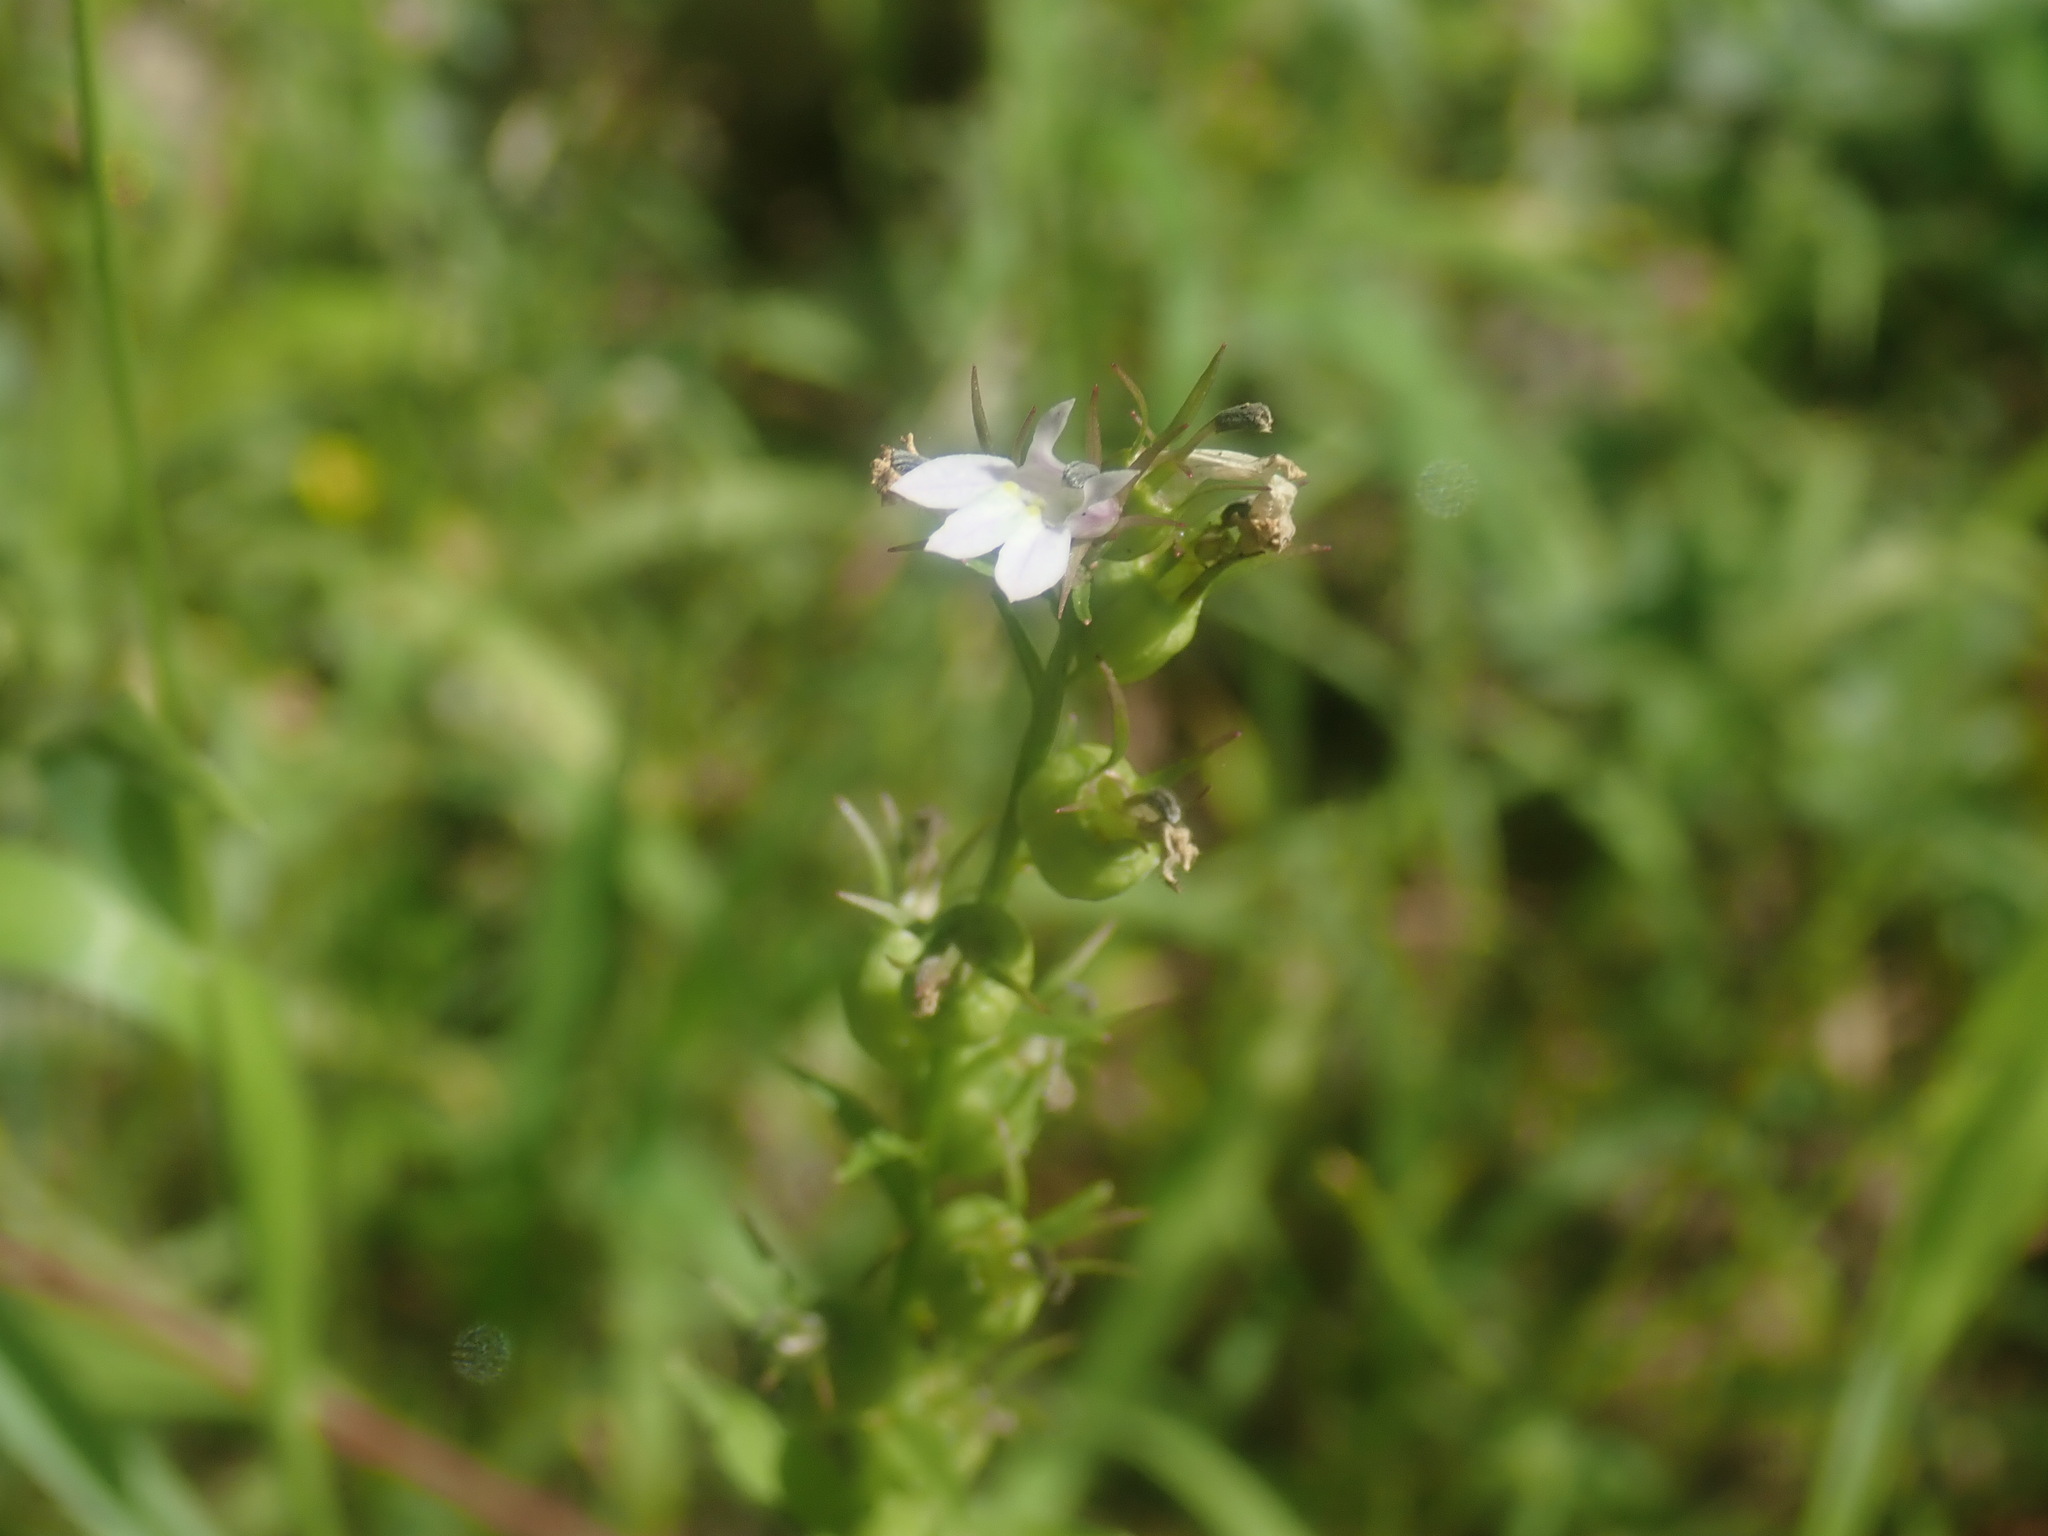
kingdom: Plantae
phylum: Tracheophyta
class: Magnoliopsida
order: Asterales
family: Campanulaceae
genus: Lobelia
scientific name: Lobelia inflata
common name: Indian tobacco
